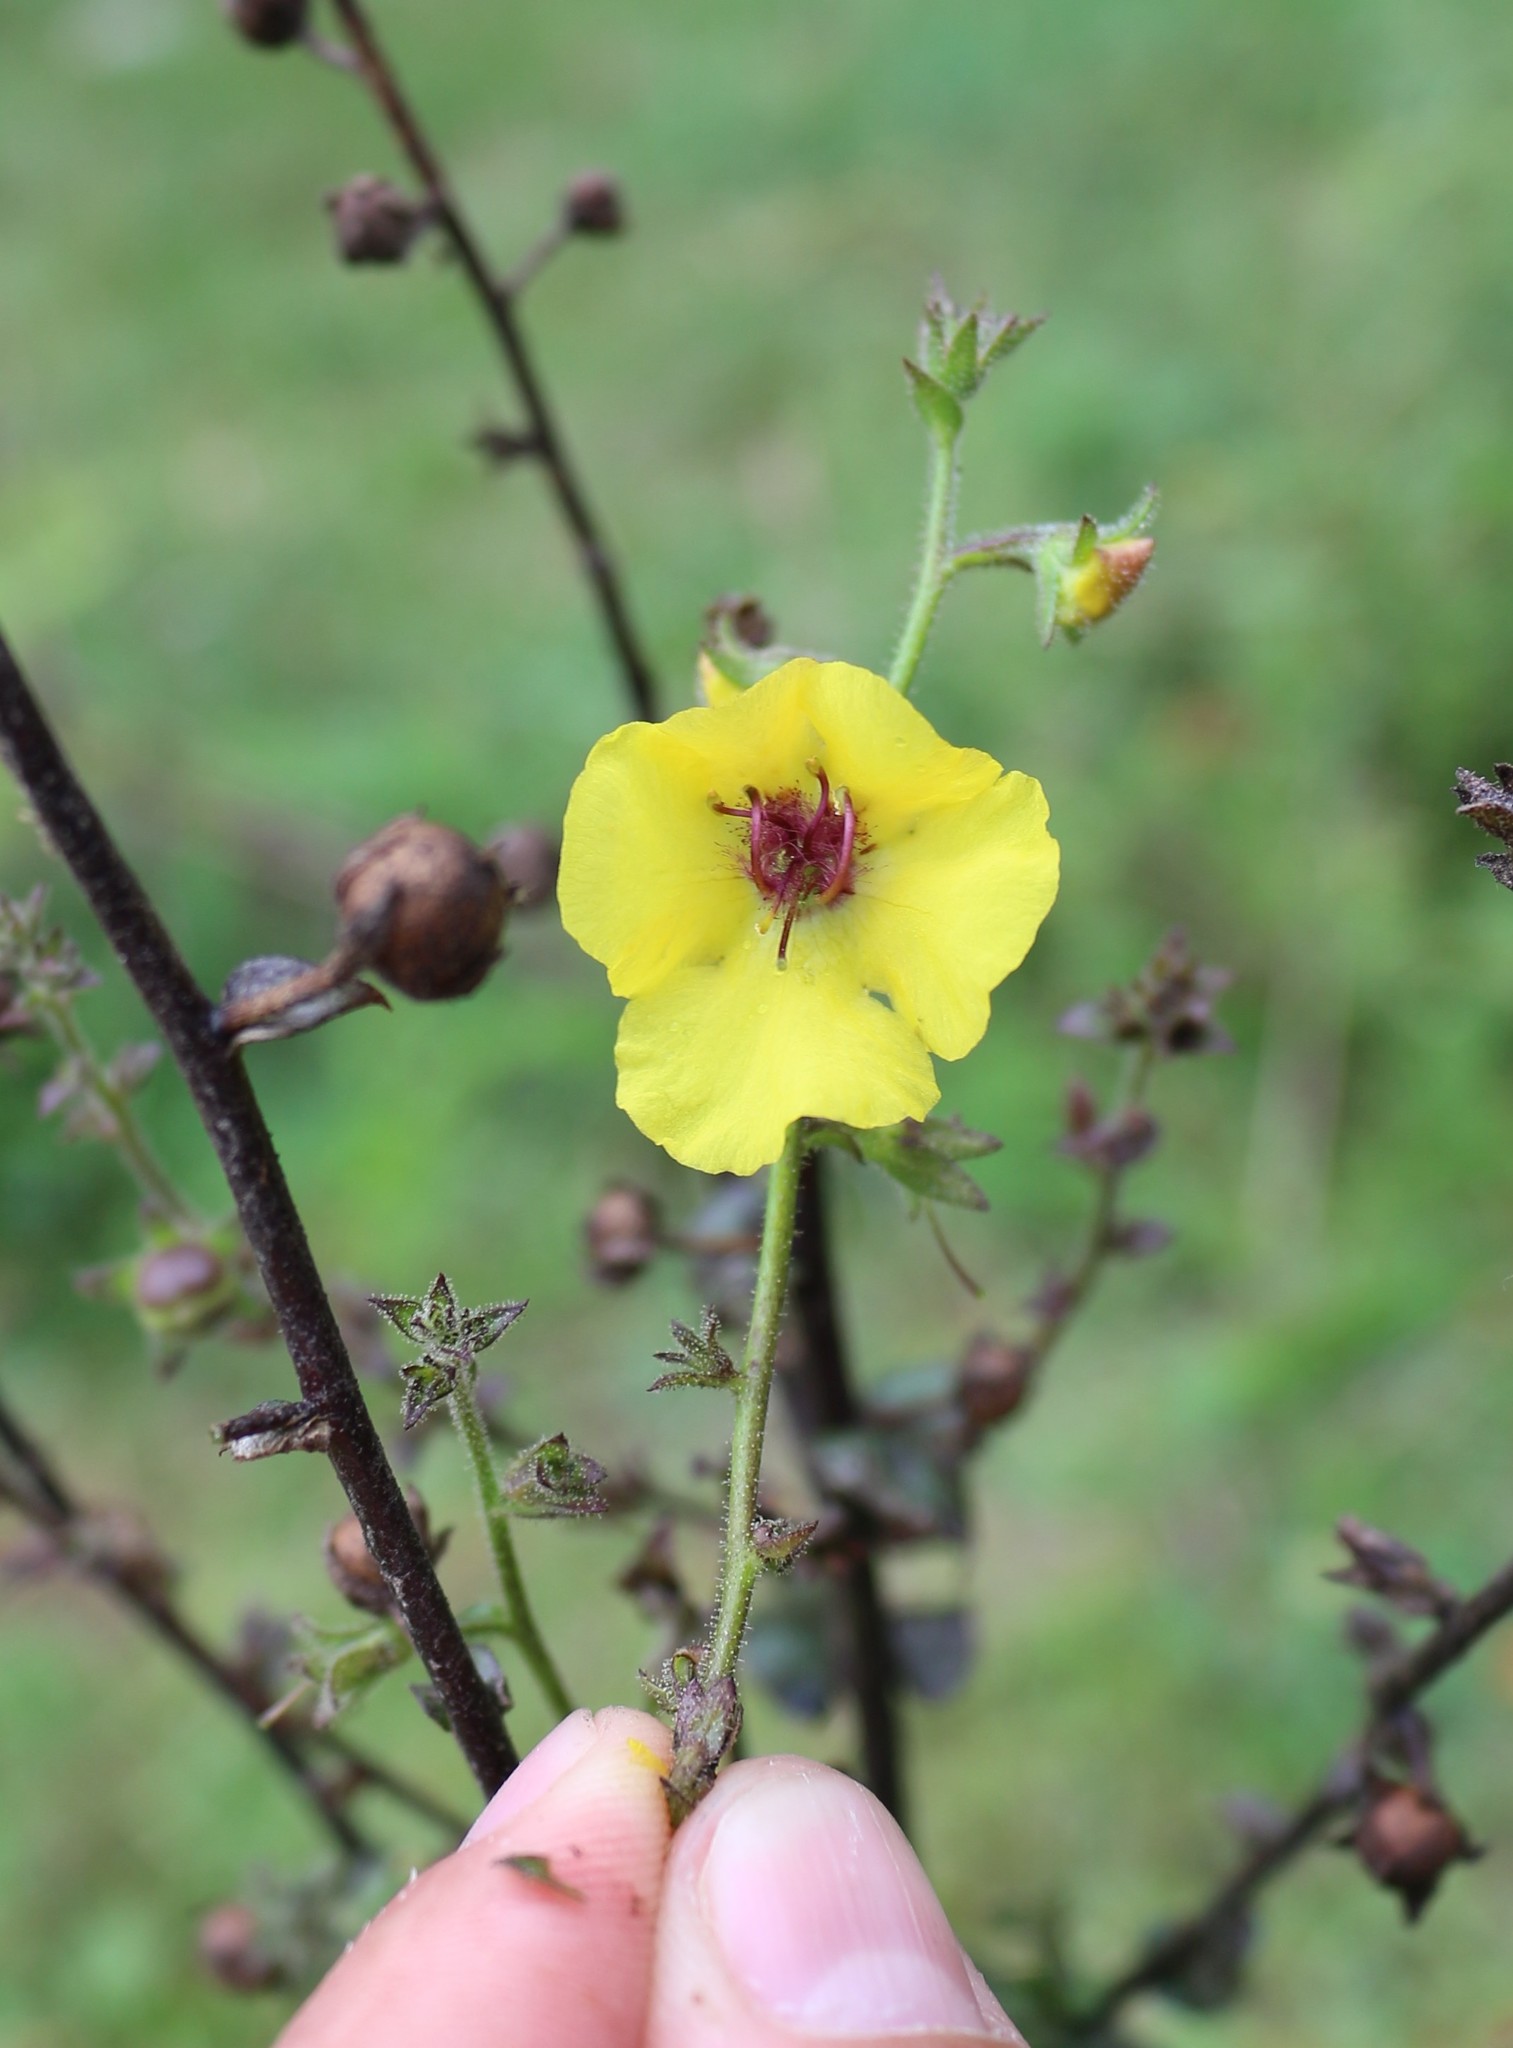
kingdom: Plantae
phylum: Tracheophyta
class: Magnoliopsida
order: Lamiales
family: Scrophulariaceae
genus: Verbascum
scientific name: Verbascum blattaria
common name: Moth mullein
